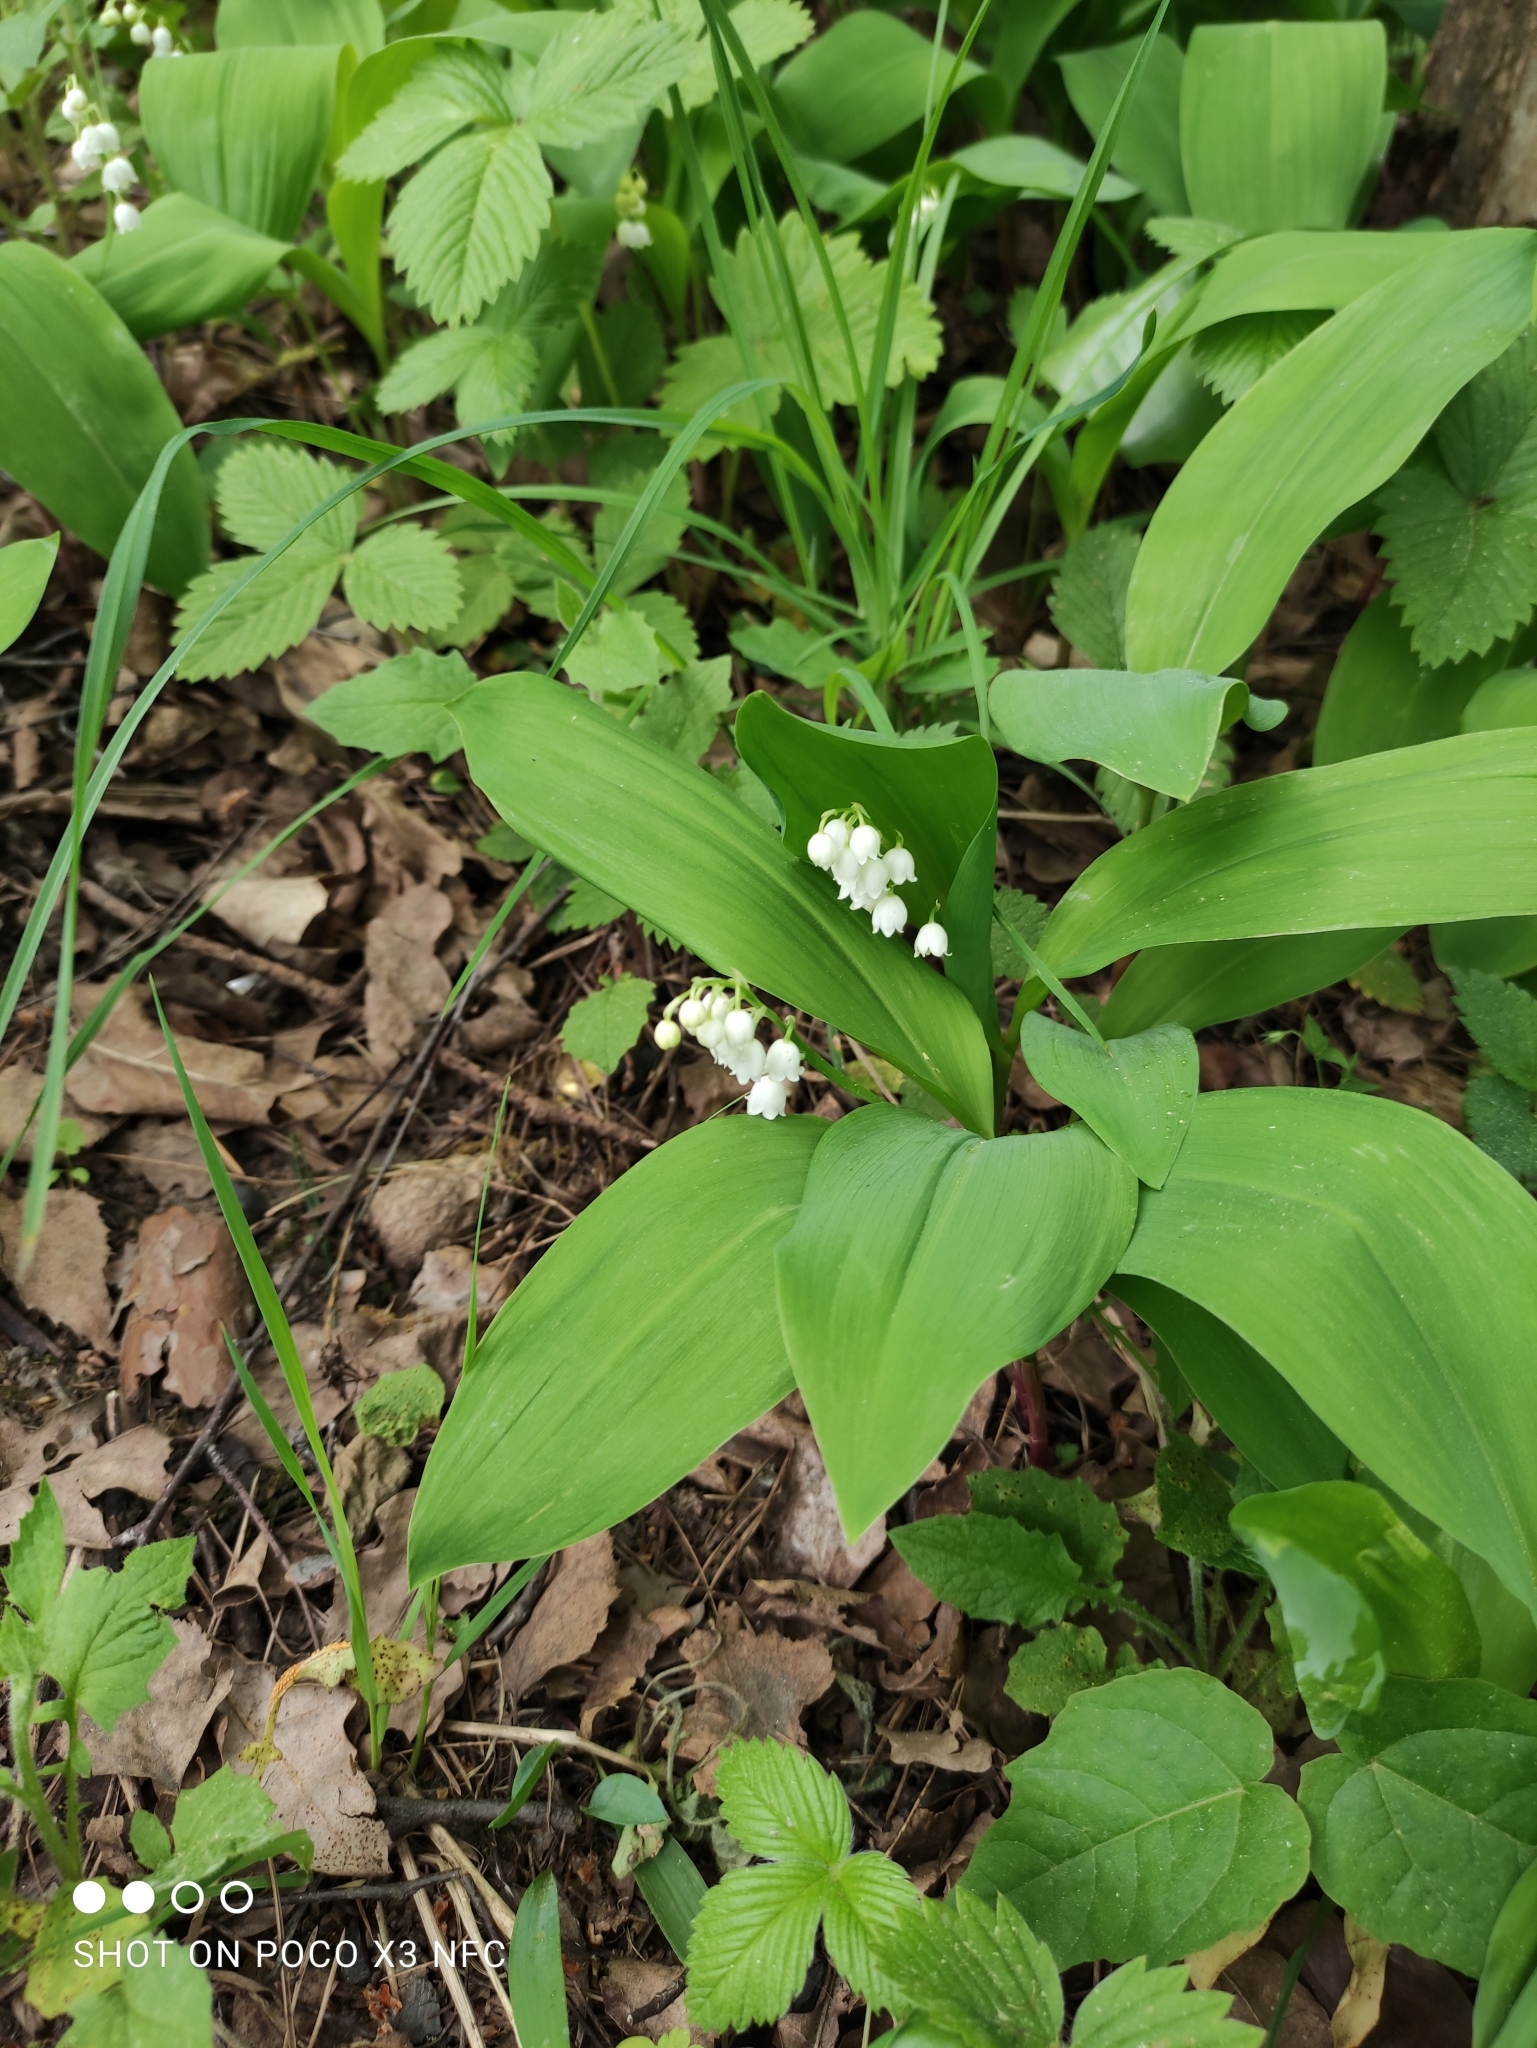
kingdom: Plantae
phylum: Tracheophyta
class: Liliopsida
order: Asparagales
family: Asparagaceae
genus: Convallaria
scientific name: Convallaria majalis
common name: Lily-of-the-valley
